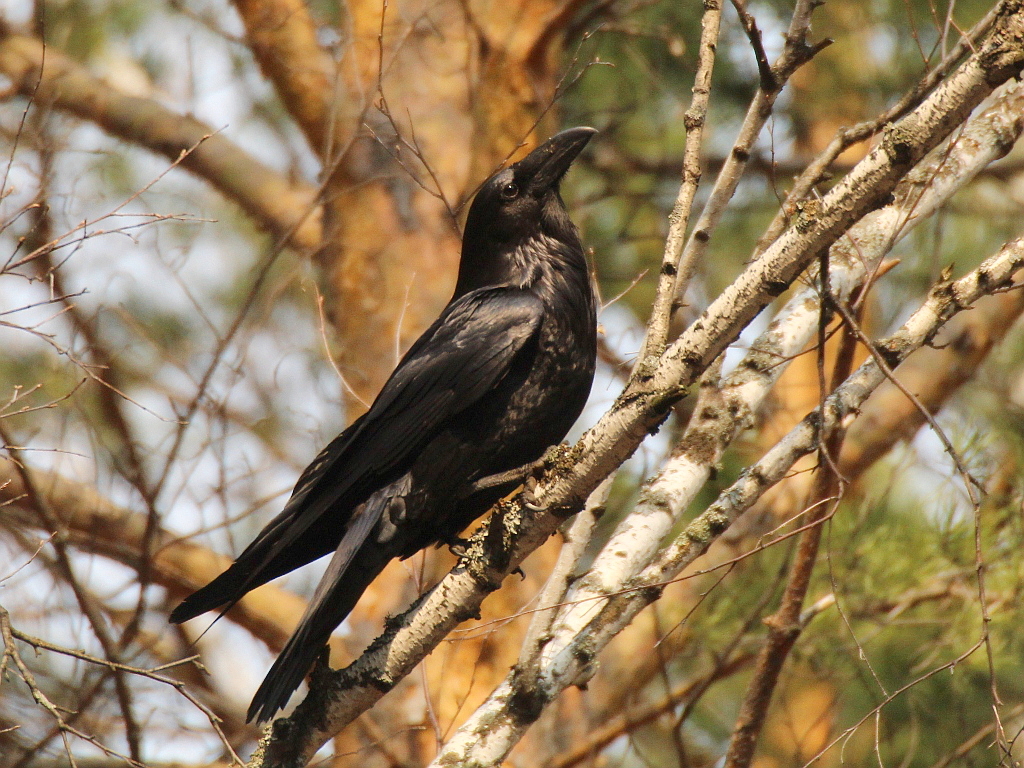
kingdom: Animalia
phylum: Chordata
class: Aves
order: Passeriformes
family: Corvidae
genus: Corvus
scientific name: Corvus corax
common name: Common raven
